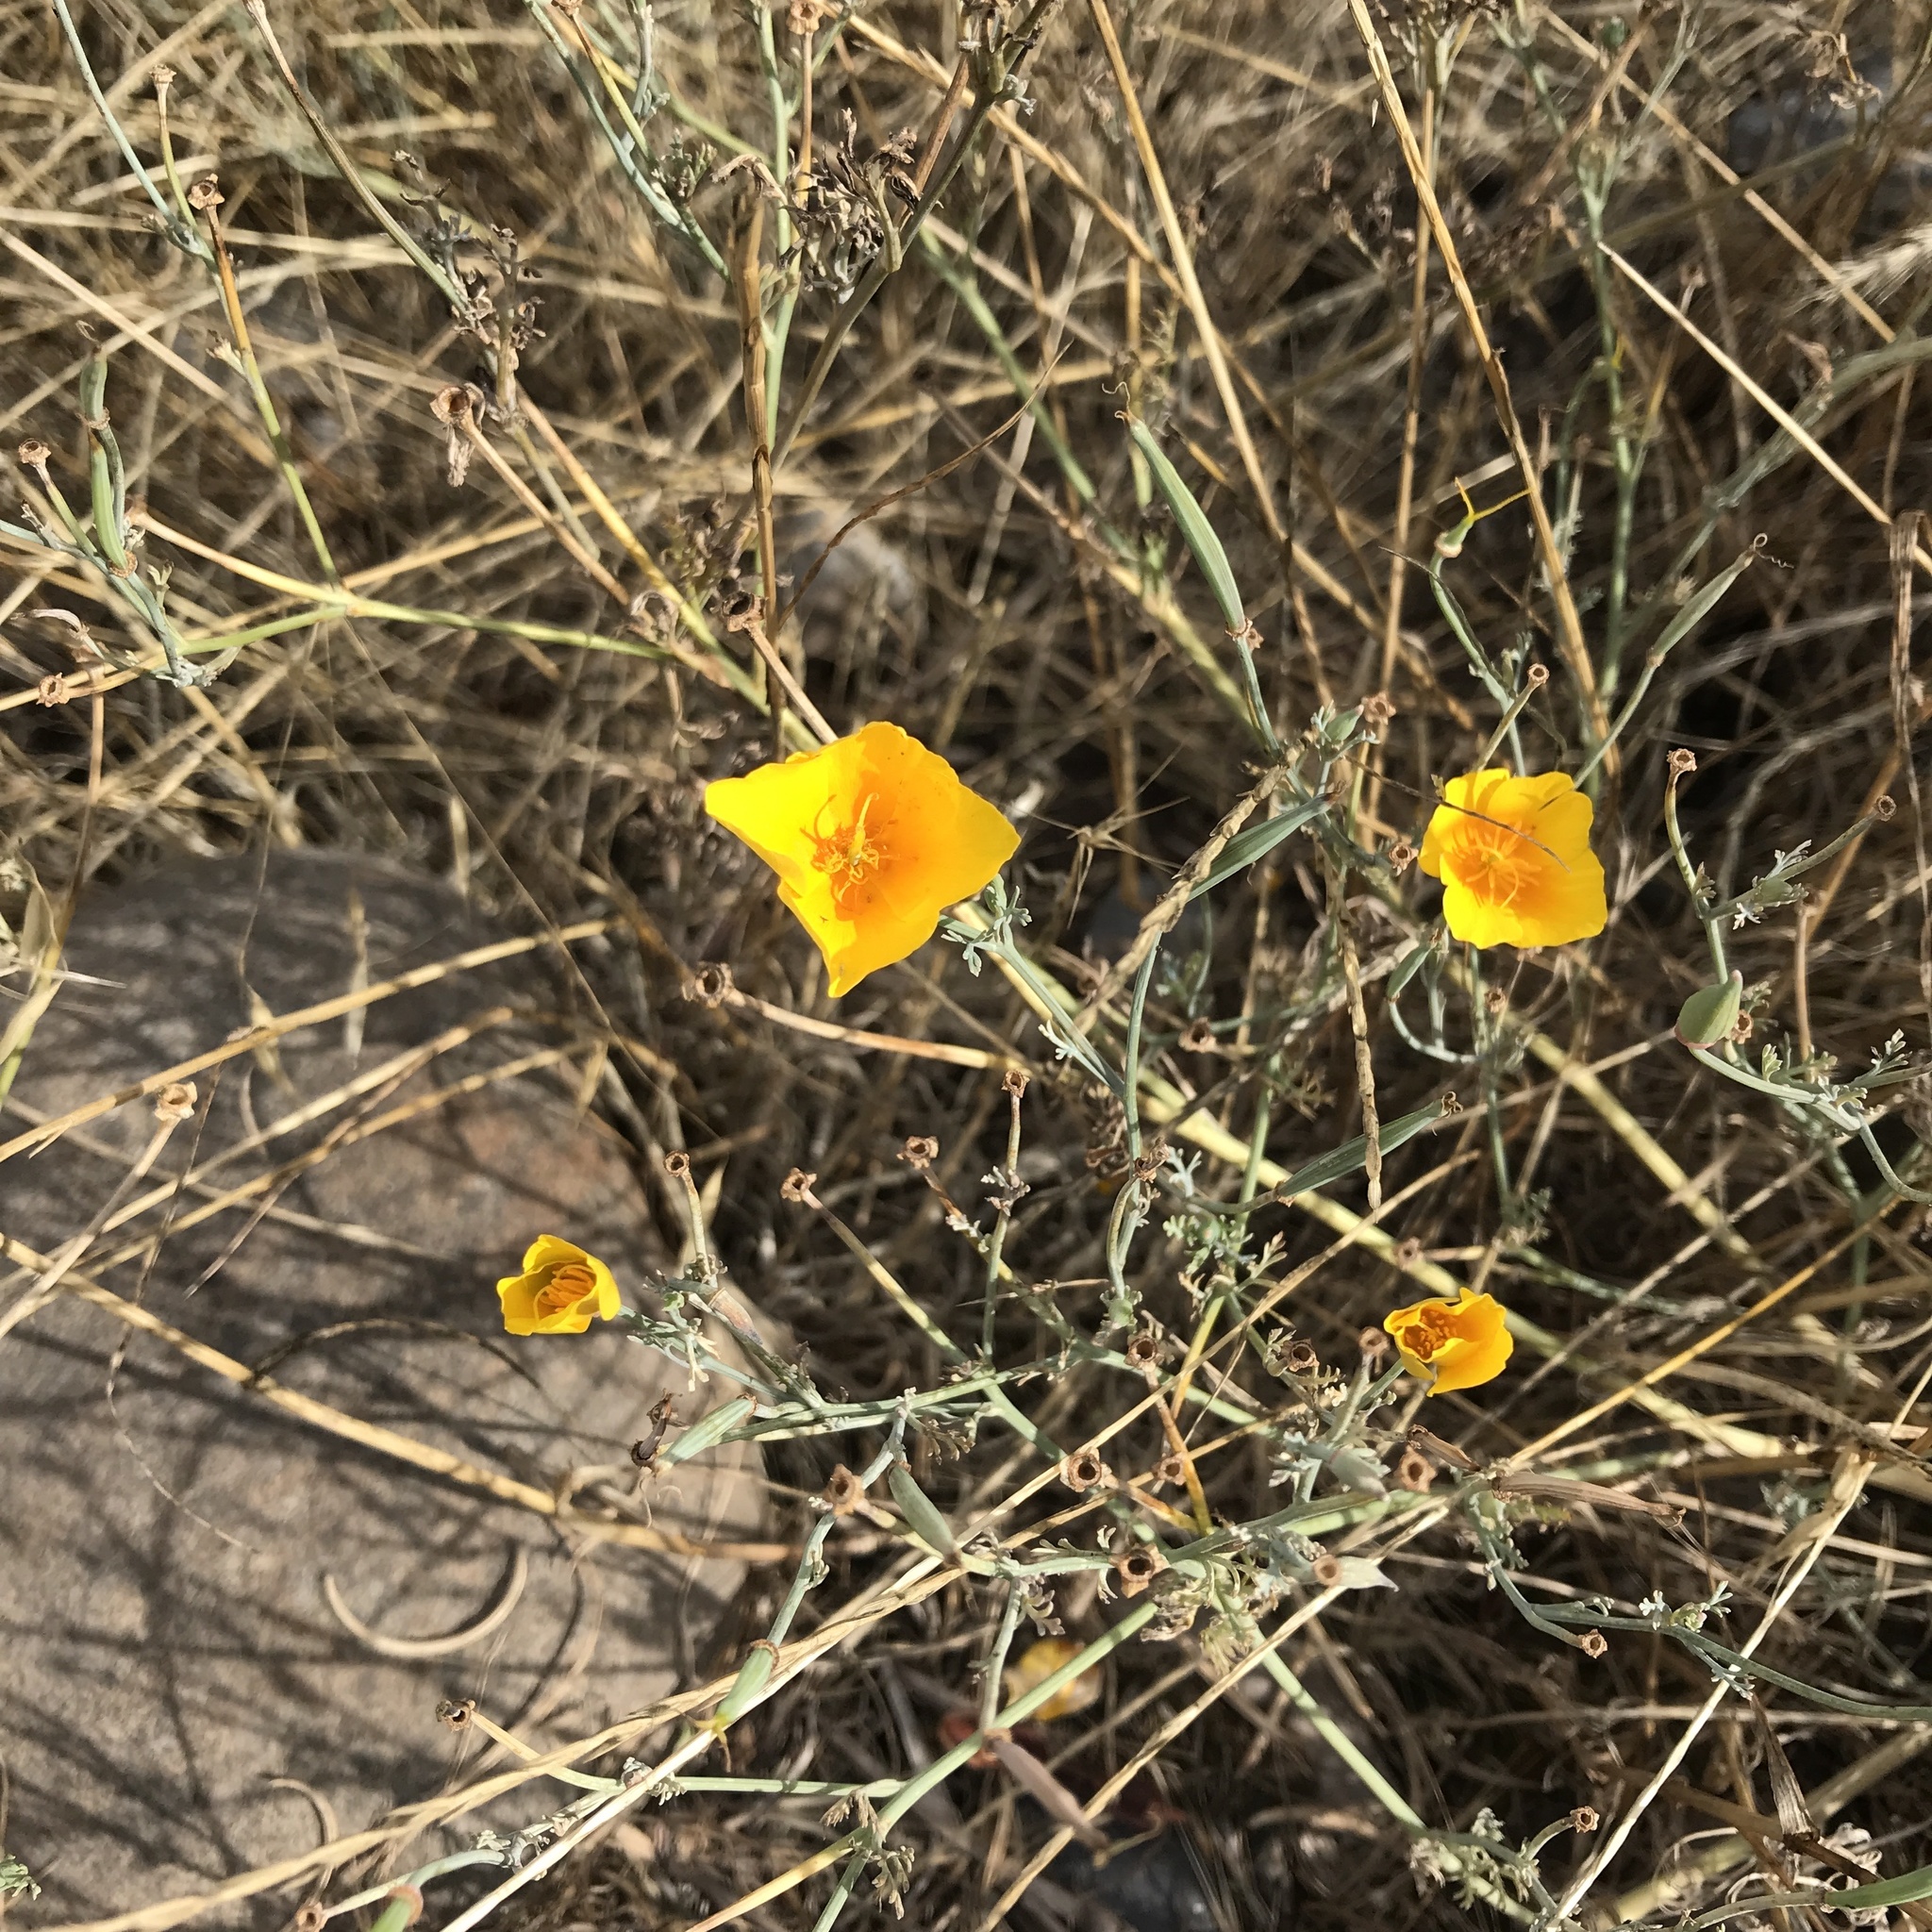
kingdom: Plantae
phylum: Tracheophyta
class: Magnoliopsida
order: Ranunculales
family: Papaveraceae
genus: Eschscholzia
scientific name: Eschscholzia californica
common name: California poppy
